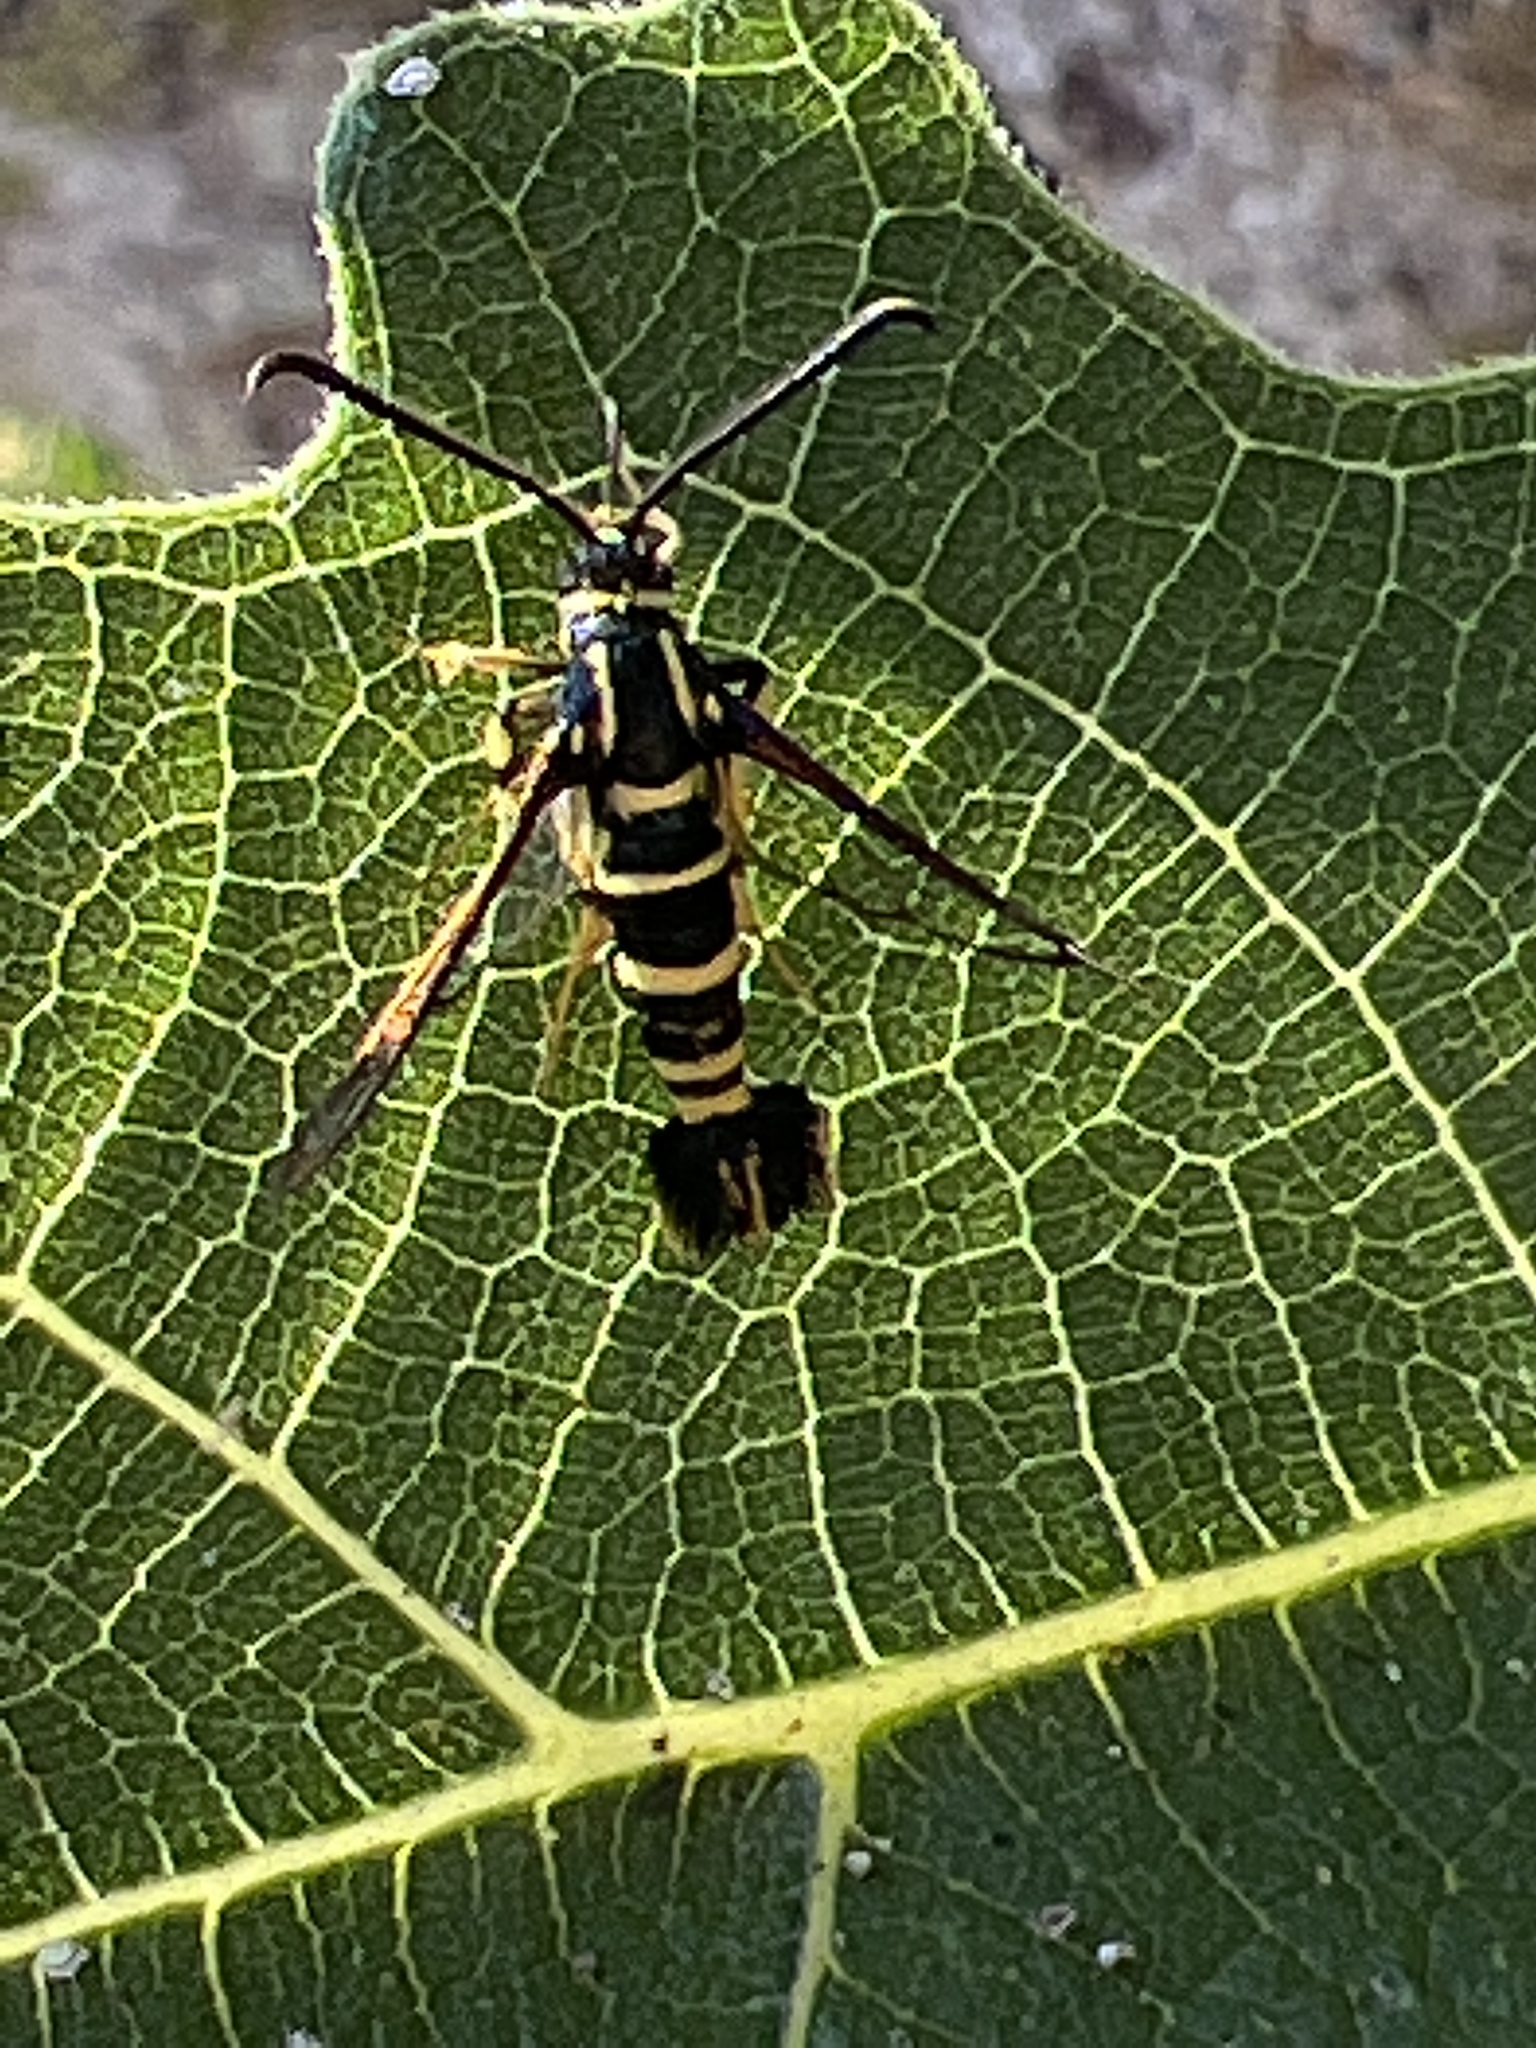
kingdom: Animalia
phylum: Arthropoda
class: Insecta
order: Lepidoptera
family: Sesiidae
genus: Synanthedon
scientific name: Synanthedon vespiformis
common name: Yellow-legged clearwing
